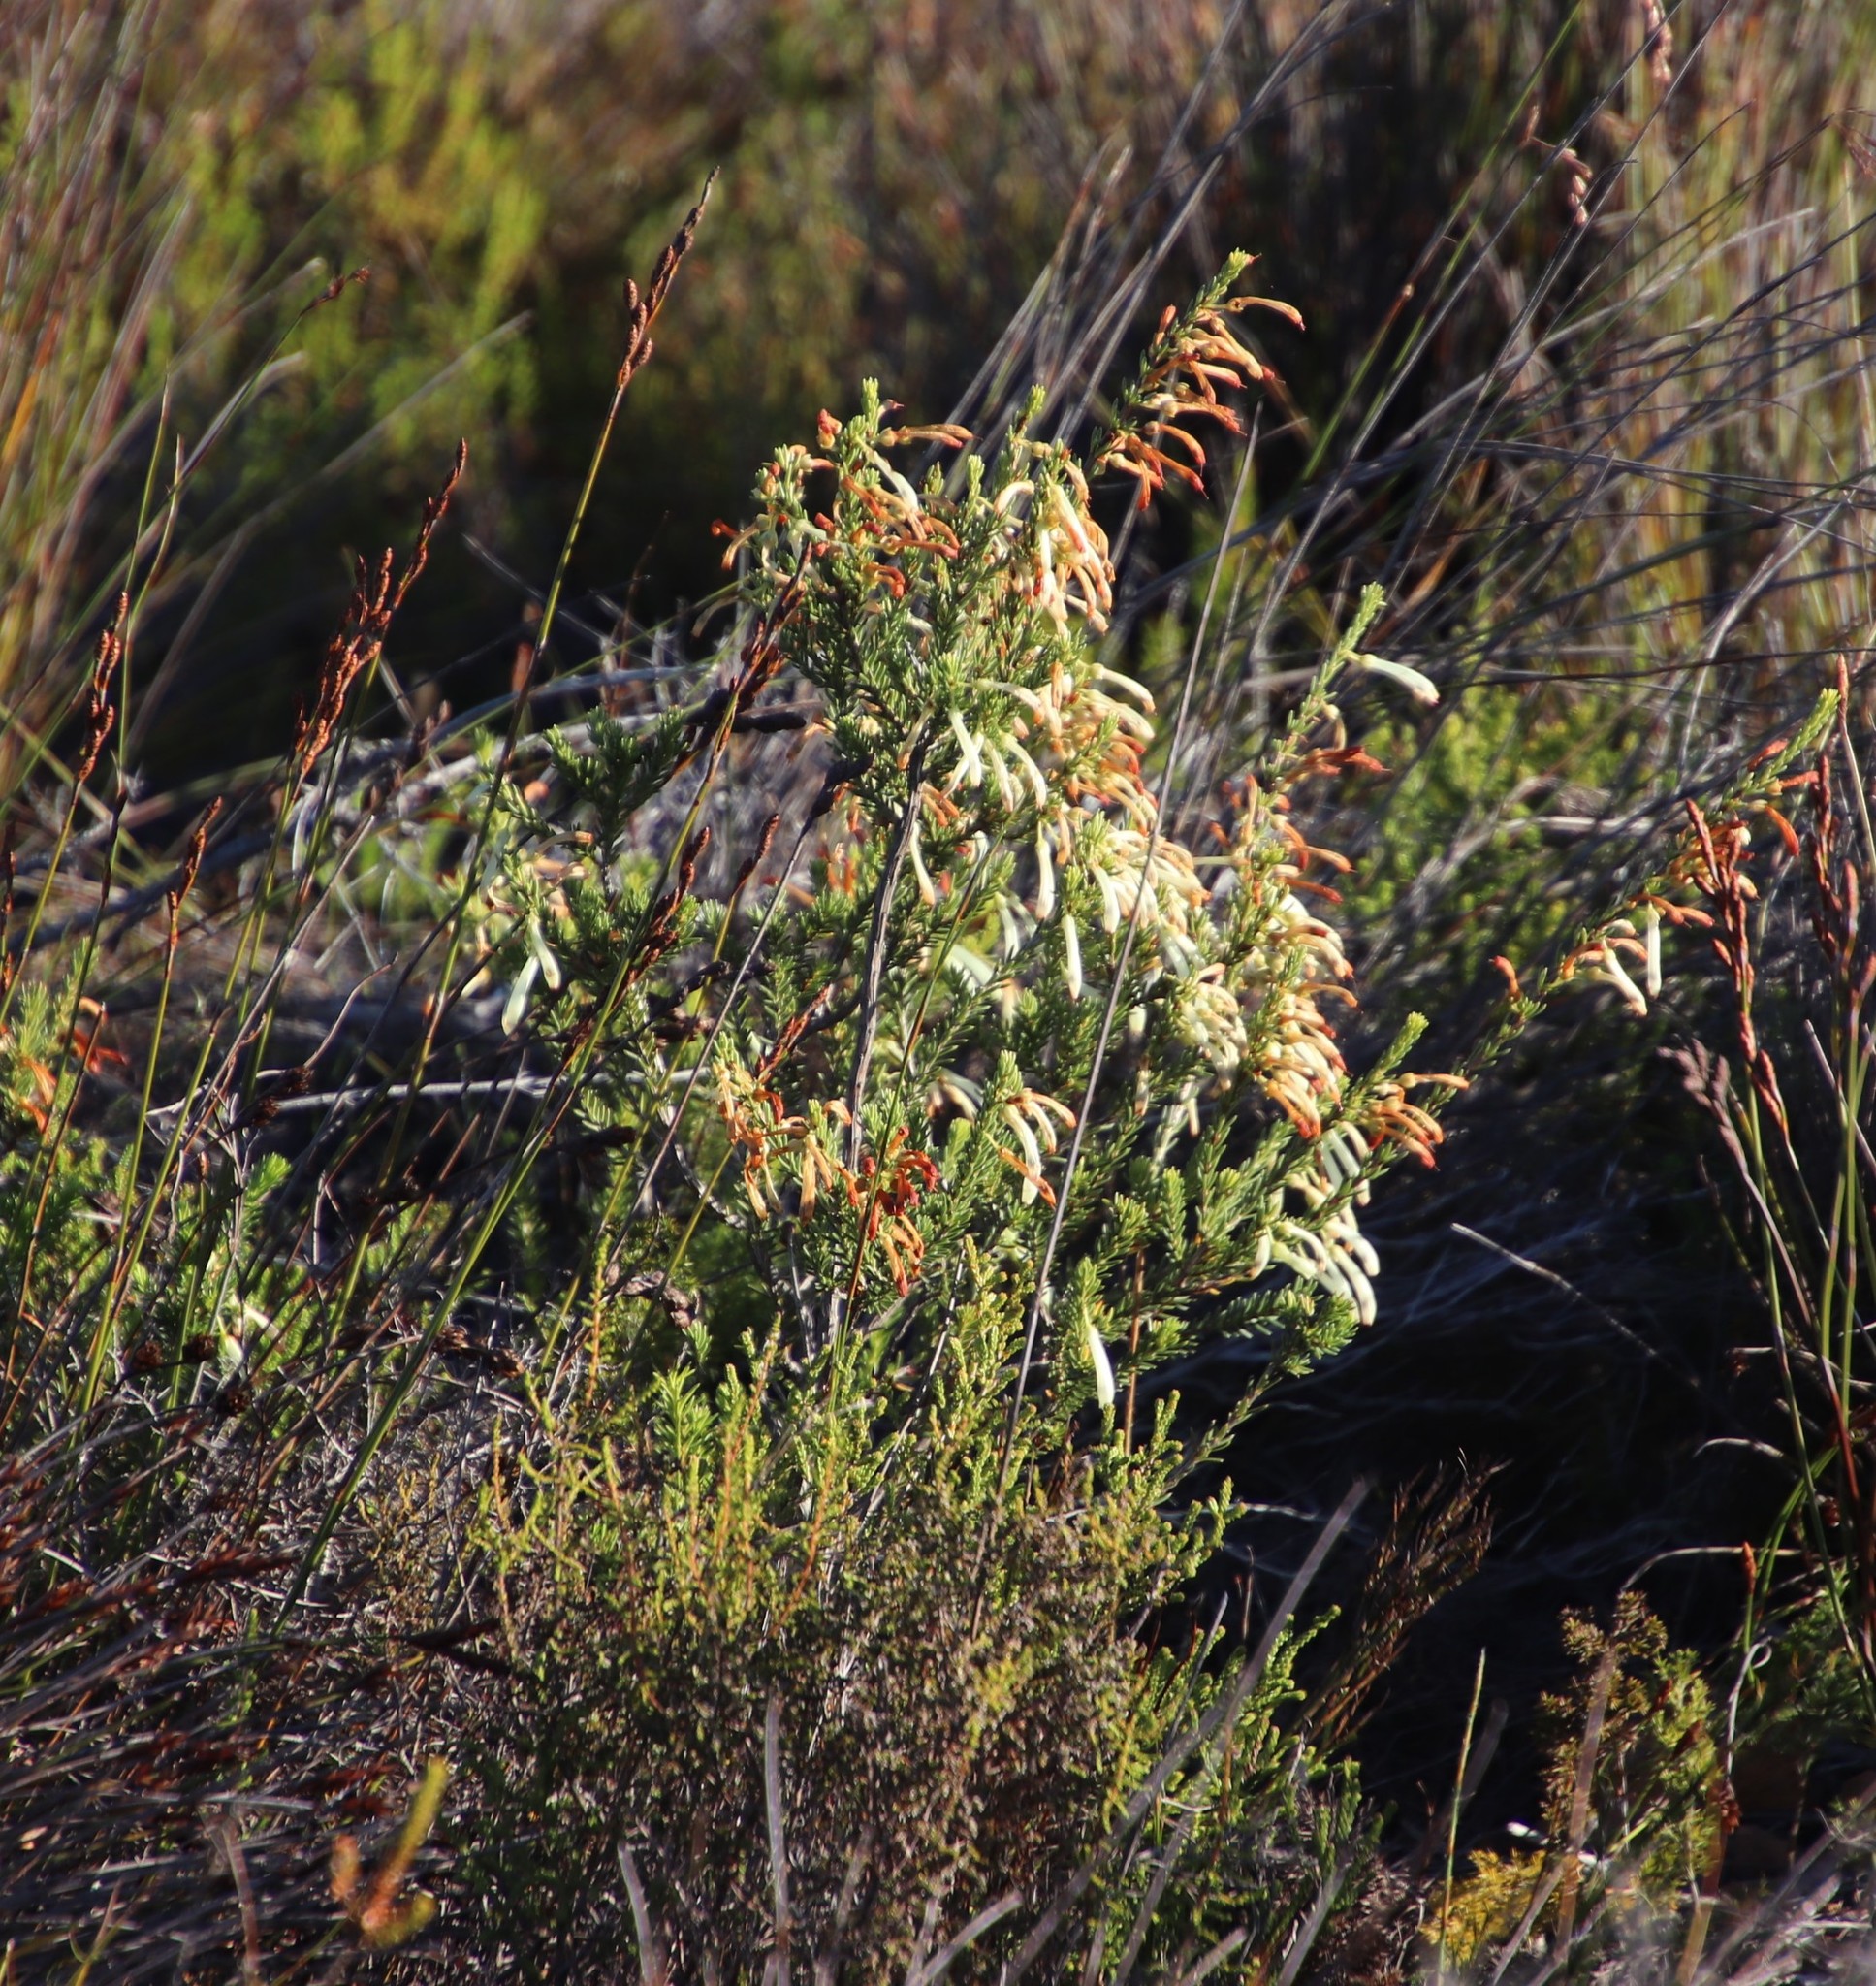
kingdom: Plantae
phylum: Tracheophyta
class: Magnoliopsida
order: Ericales
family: Ericaceae
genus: Erica
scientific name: Erica mammosa
